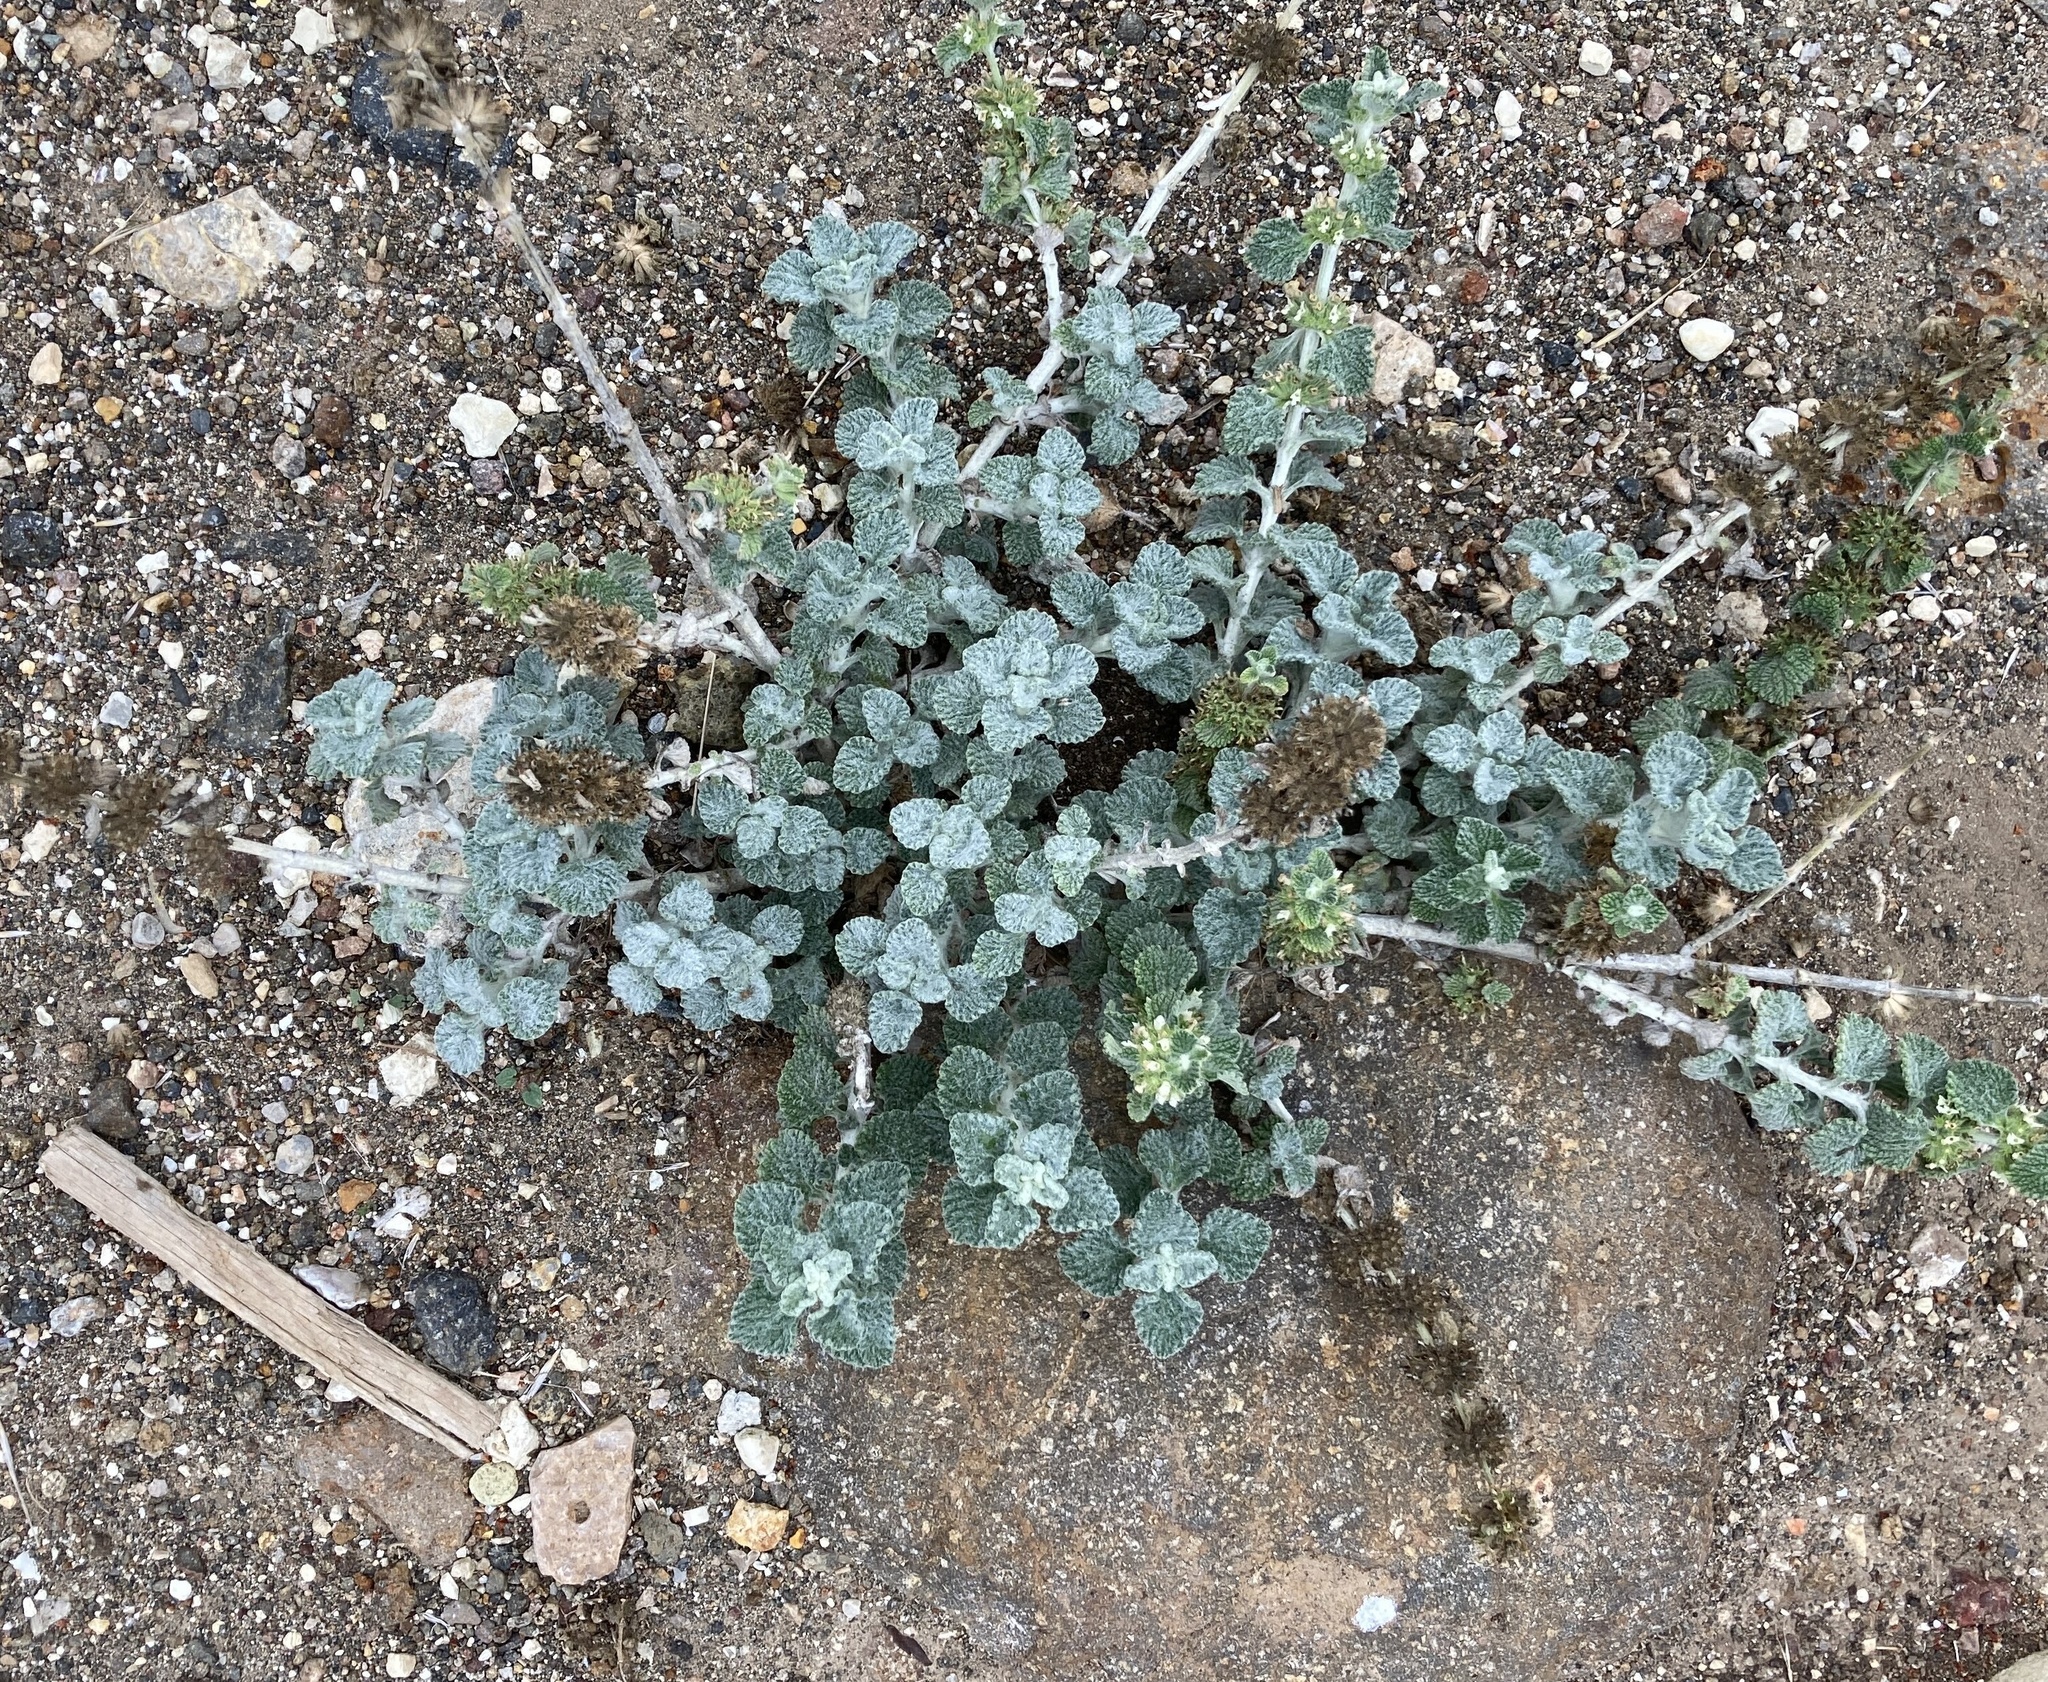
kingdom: Plantae
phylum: Tracheophyta
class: Magnoliopsida
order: Lamiales
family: Lamiaceae
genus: Marrubium
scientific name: Marrubium vulgare
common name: Horehound
